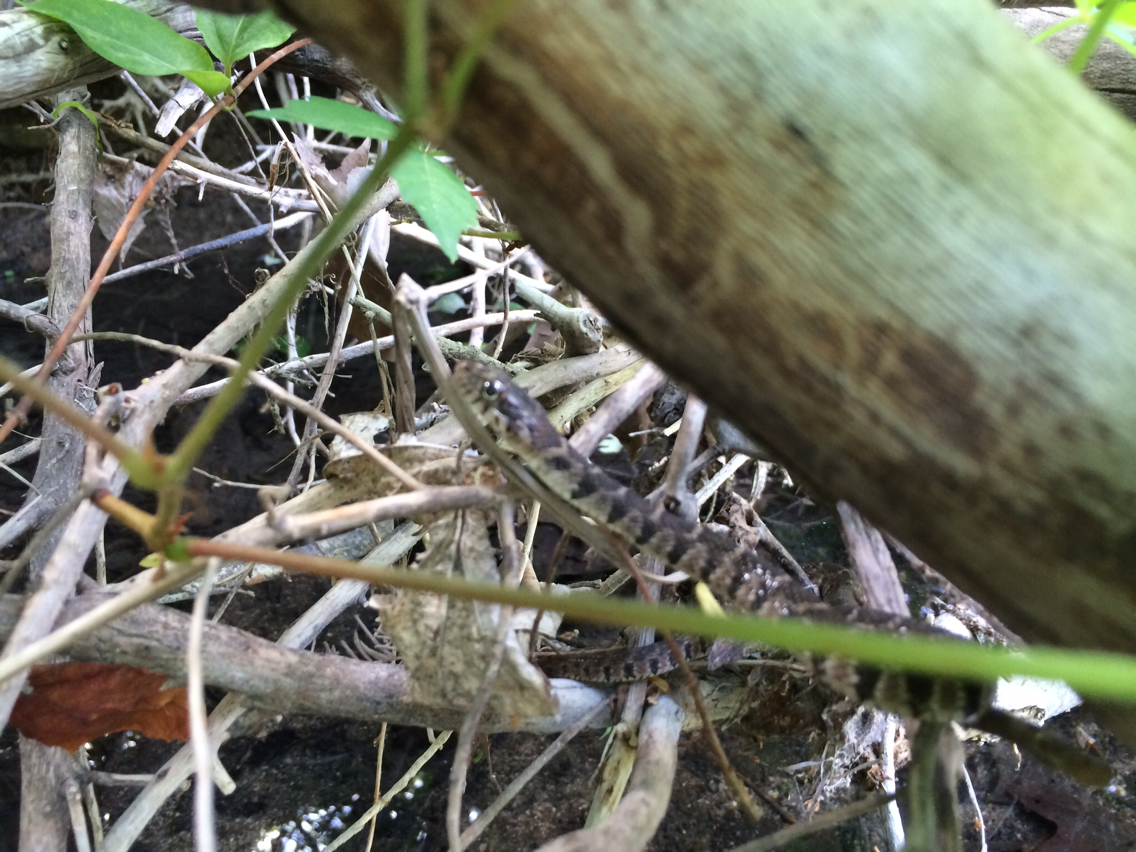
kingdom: Animalia
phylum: Chordata
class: Squamata
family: Colubridae
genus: Nerodia
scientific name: Nerodia erythrogaster
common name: Plainbelly water snake
